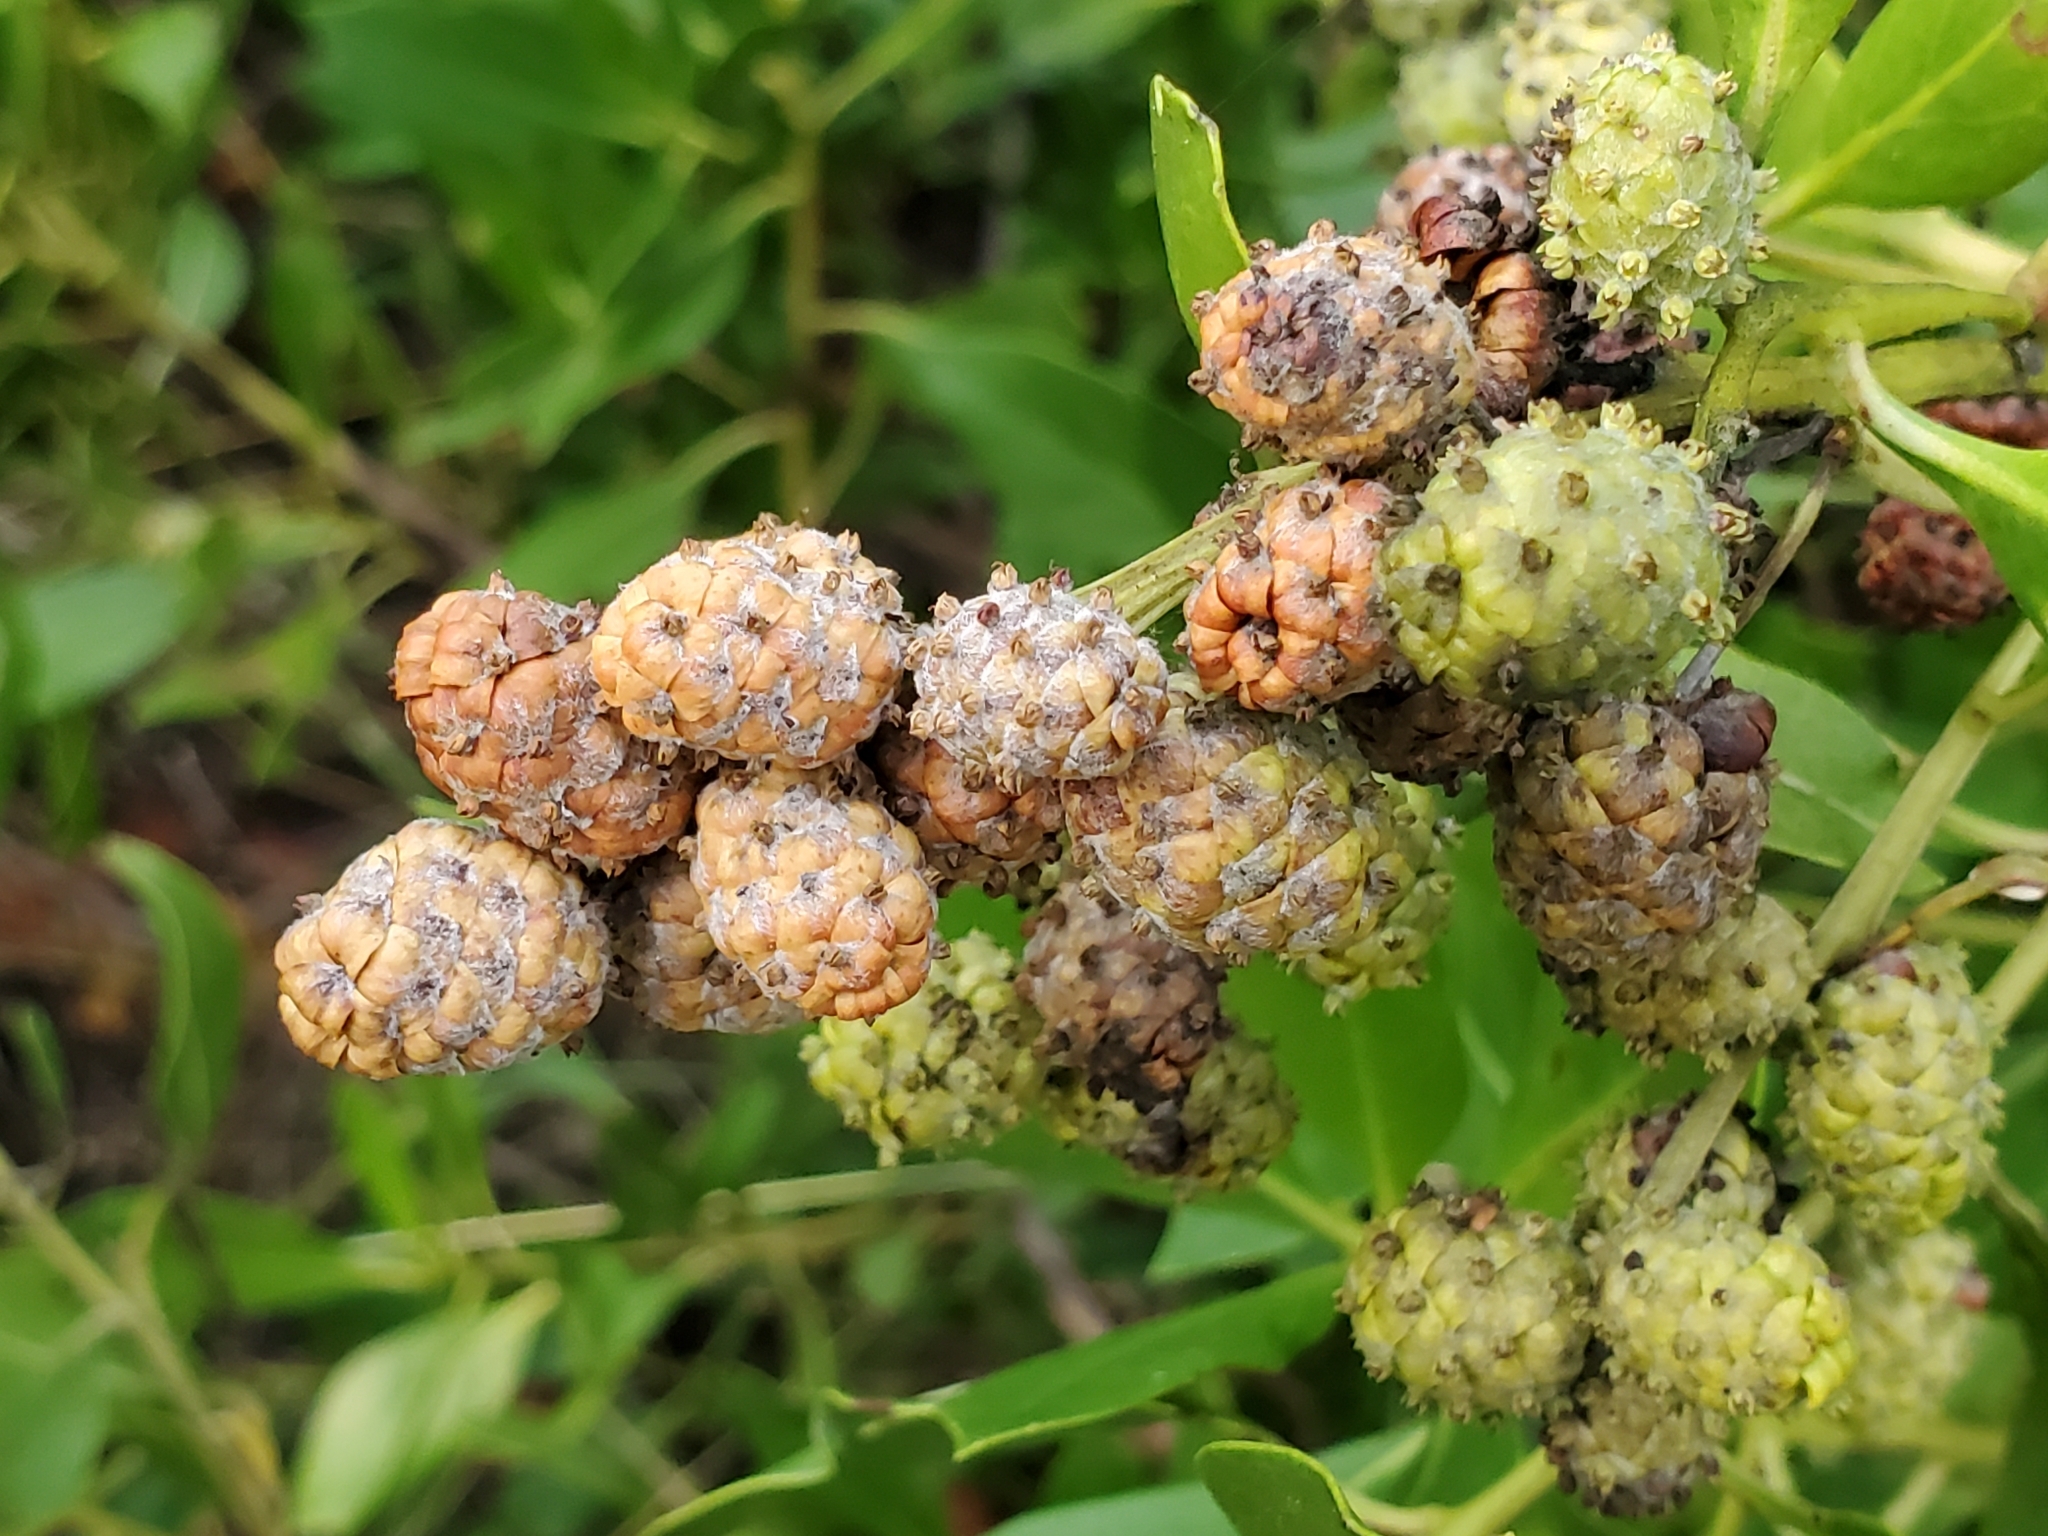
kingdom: Plantae
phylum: Tracheophyta
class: Magnoliopsida
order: Myrtales
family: Combretaceae
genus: Conocarpus
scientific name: Conocarpus erectus
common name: Button mangrove
